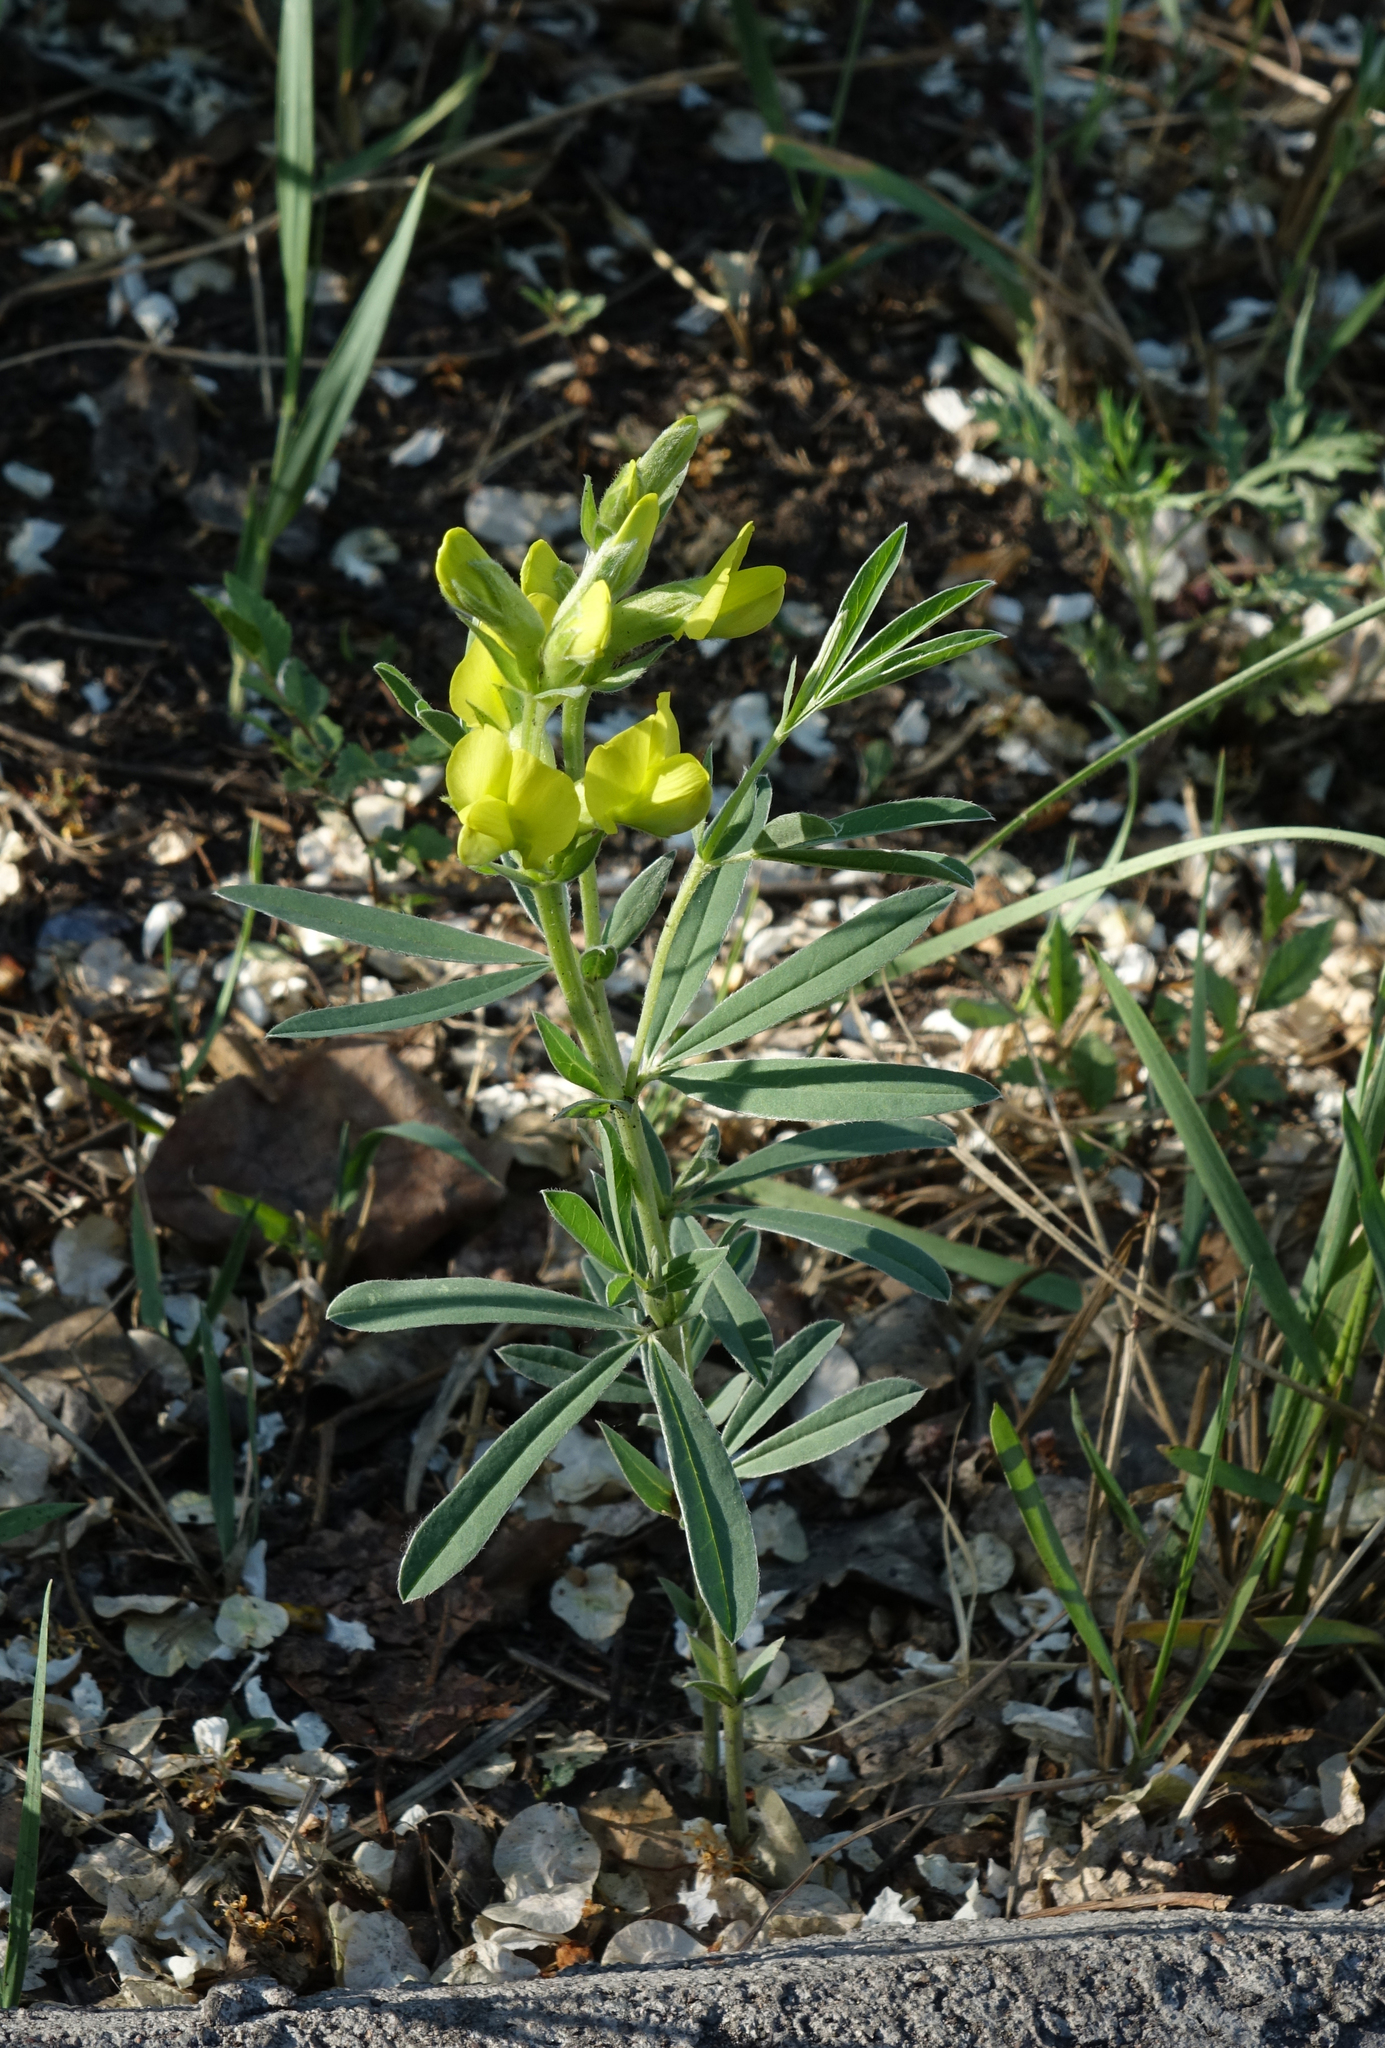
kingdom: Plantae
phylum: Tracheophyta
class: Magnoliopsida
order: Fabales
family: Fabaceae
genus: Thermopsis
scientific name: Thermopsis mongolica
